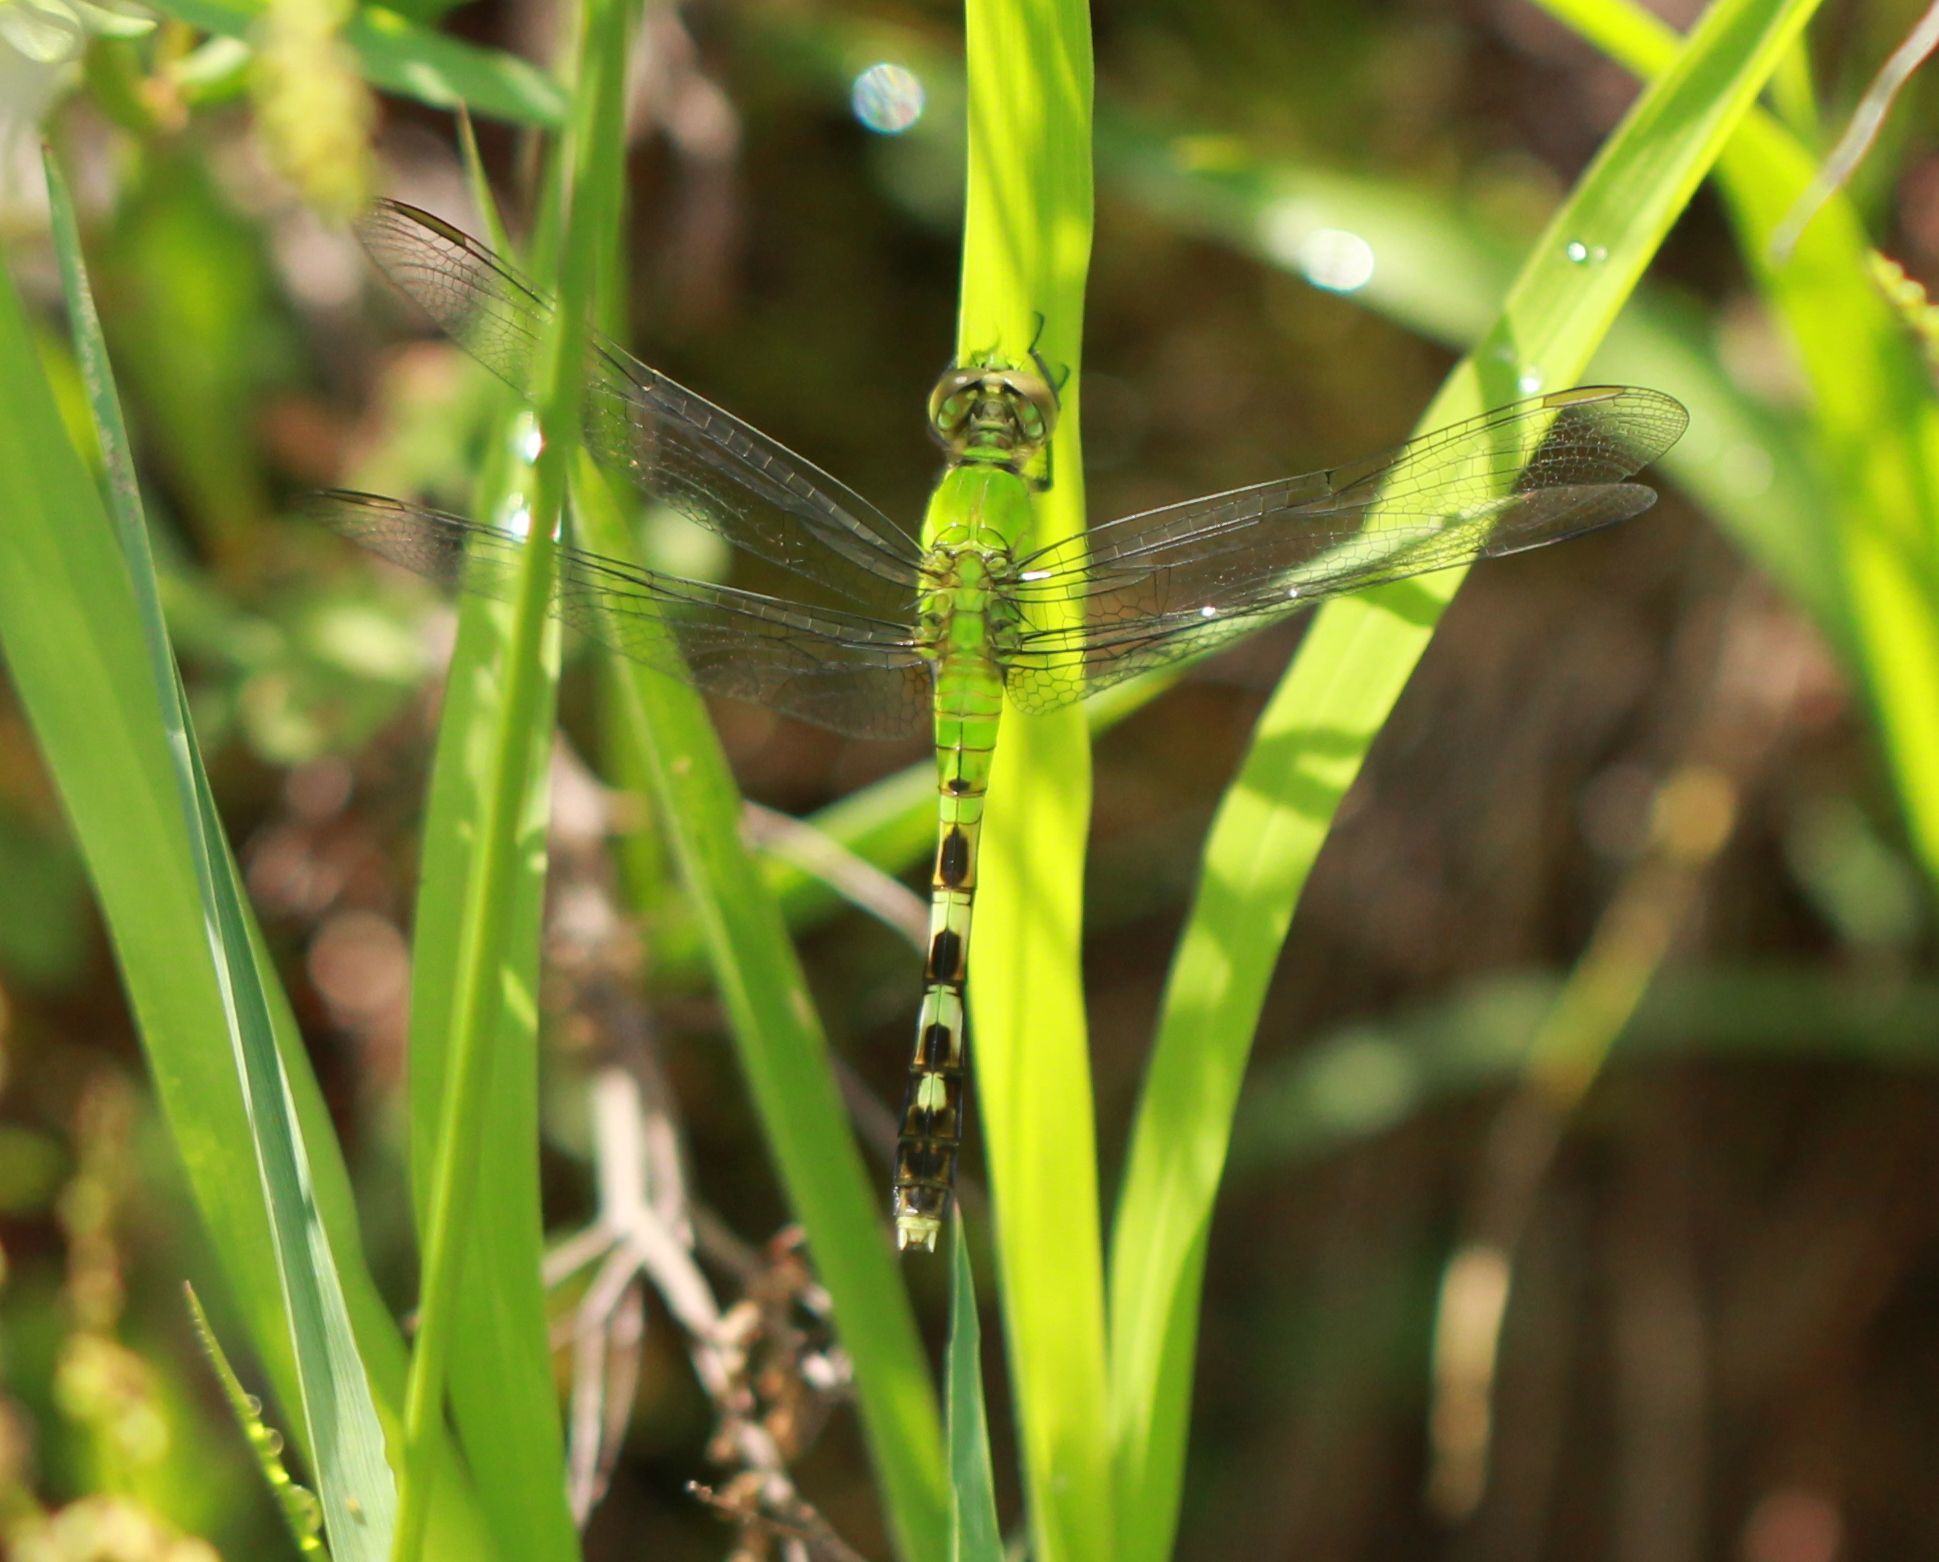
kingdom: Animalia
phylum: Arthropoda
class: Insecta
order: Odonata
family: Libellulidae
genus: Erythemis
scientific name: Erythemis simplicicollis
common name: Eastern pondhawk
